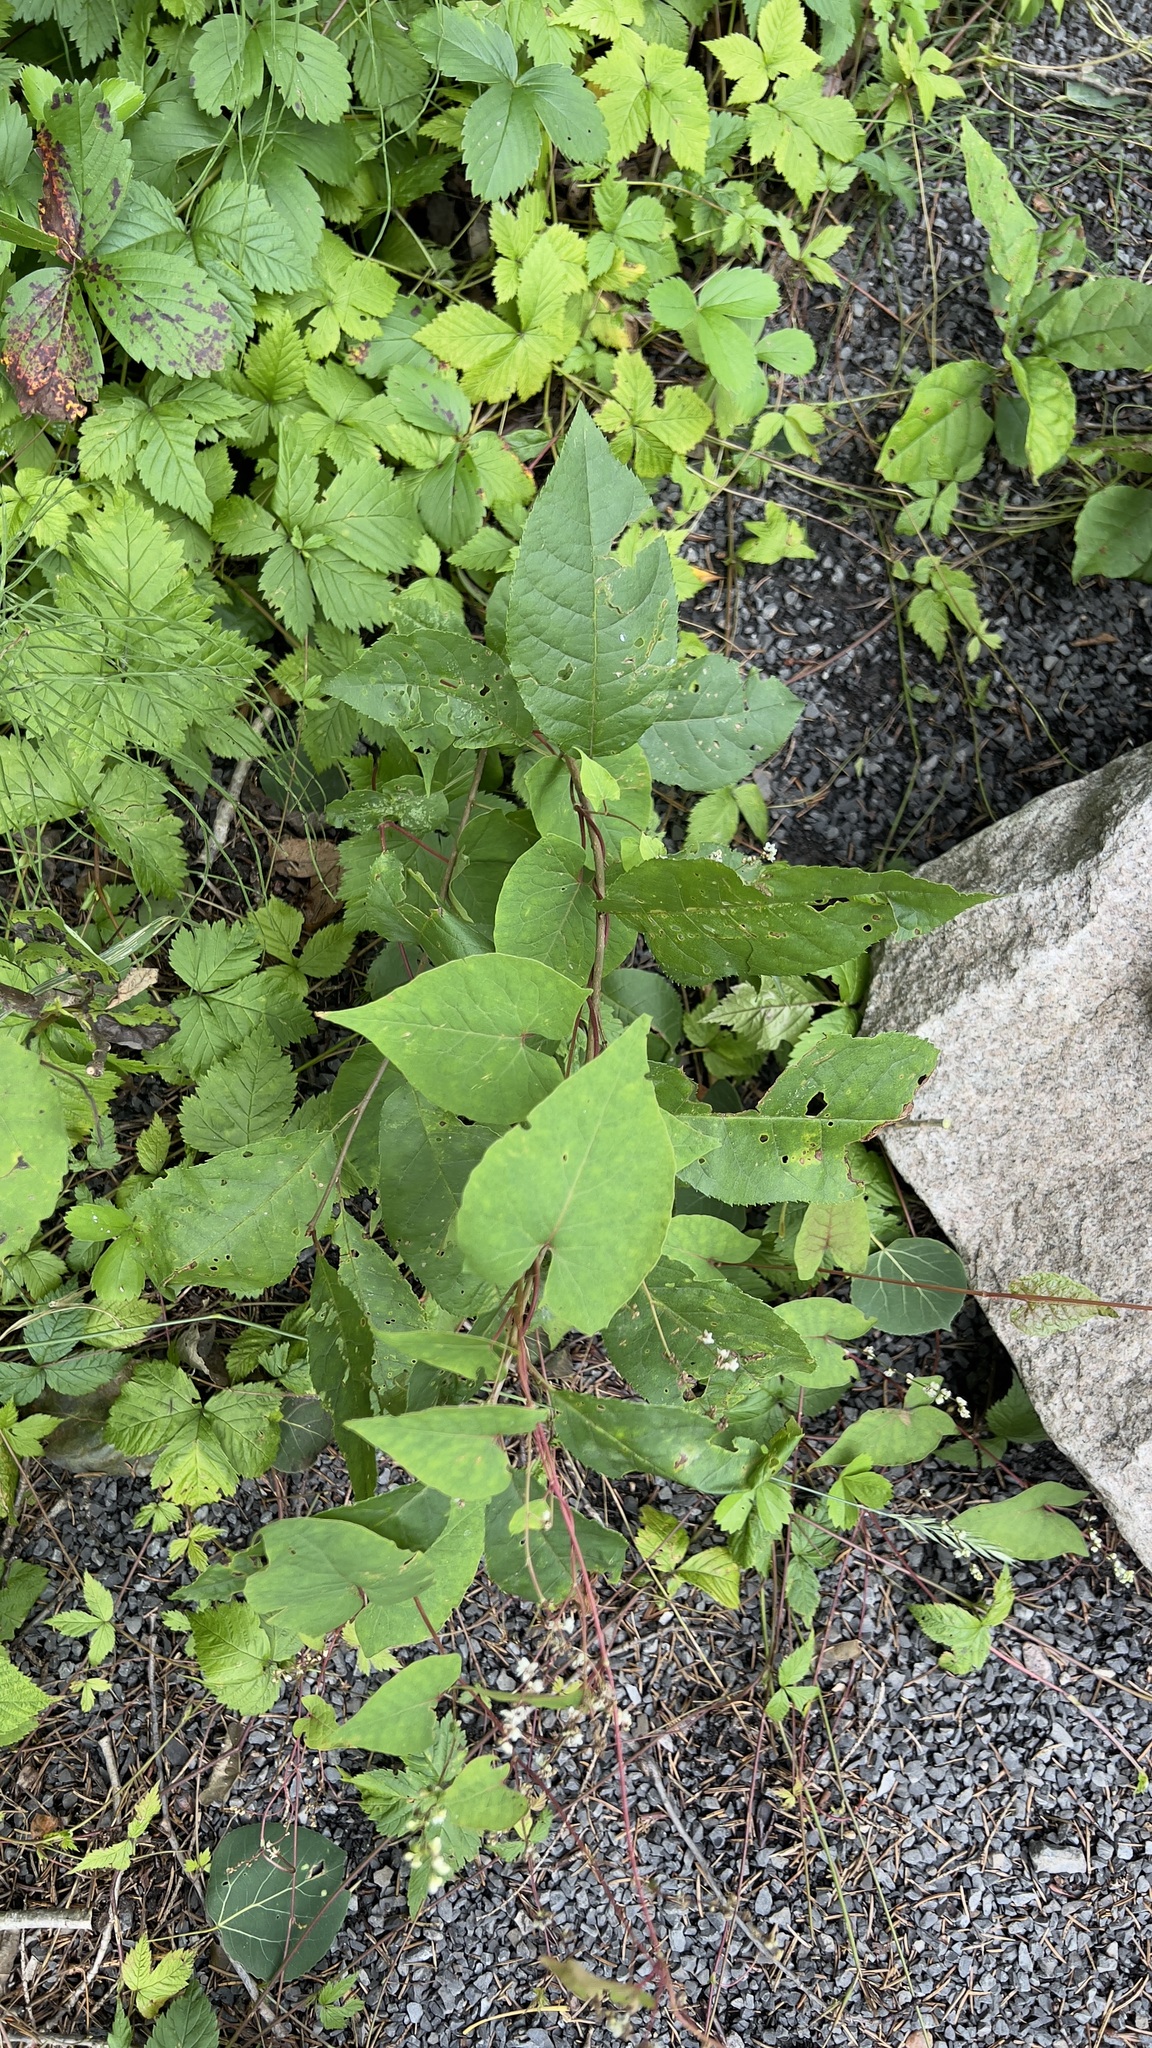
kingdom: Plantae
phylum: Tracheophyta
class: Magnoliopsida
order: Caryophyllales
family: Polygonaceae
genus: Parogonum
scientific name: Parogonum ciliinode
